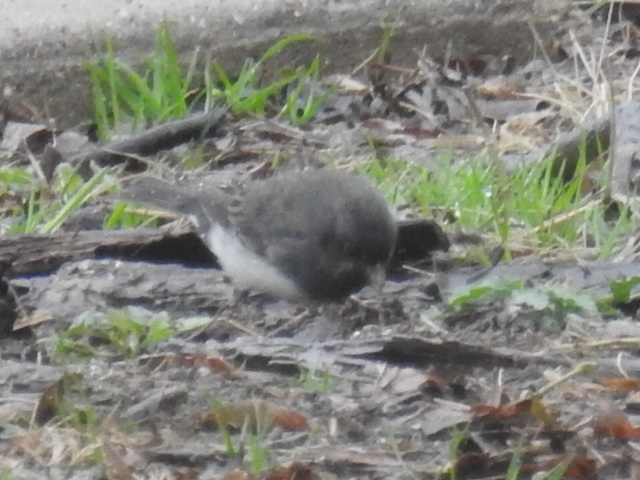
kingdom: Animalia
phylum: Chordata
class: Aves
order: Passeriformes
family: Passerellidae
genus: Junco
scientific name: Junco hyemalis
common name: Dark-eyed junco
